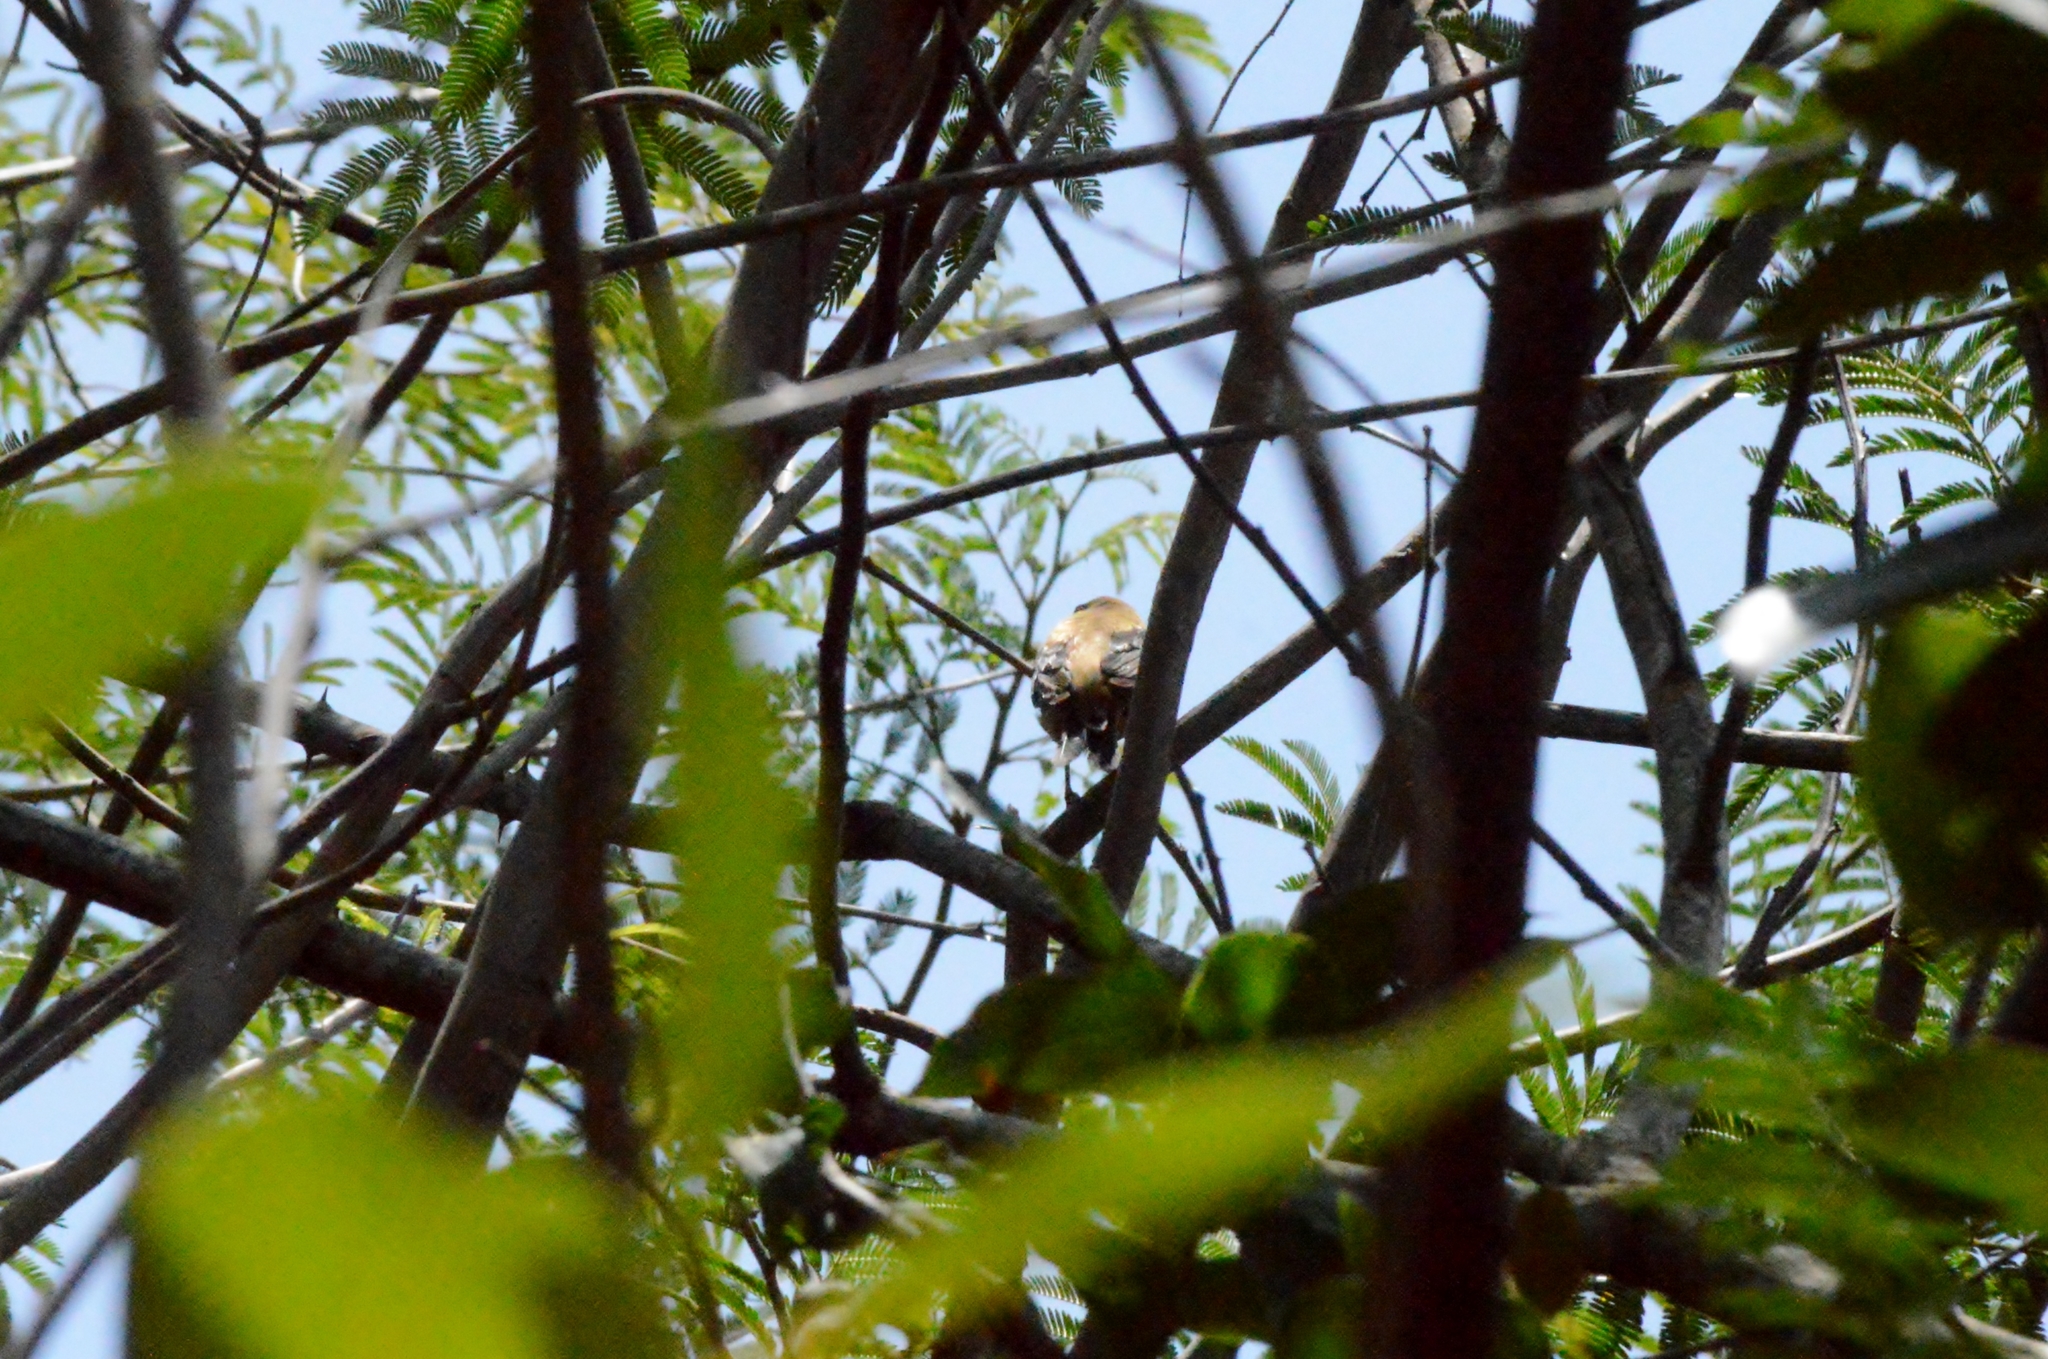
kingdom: Animalia
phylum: Chordata
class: Aves
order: Passeriformes
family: Thraupidae
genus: Stilpnia
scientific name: Stilpnia cayana
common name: Burnished-buff tanager
